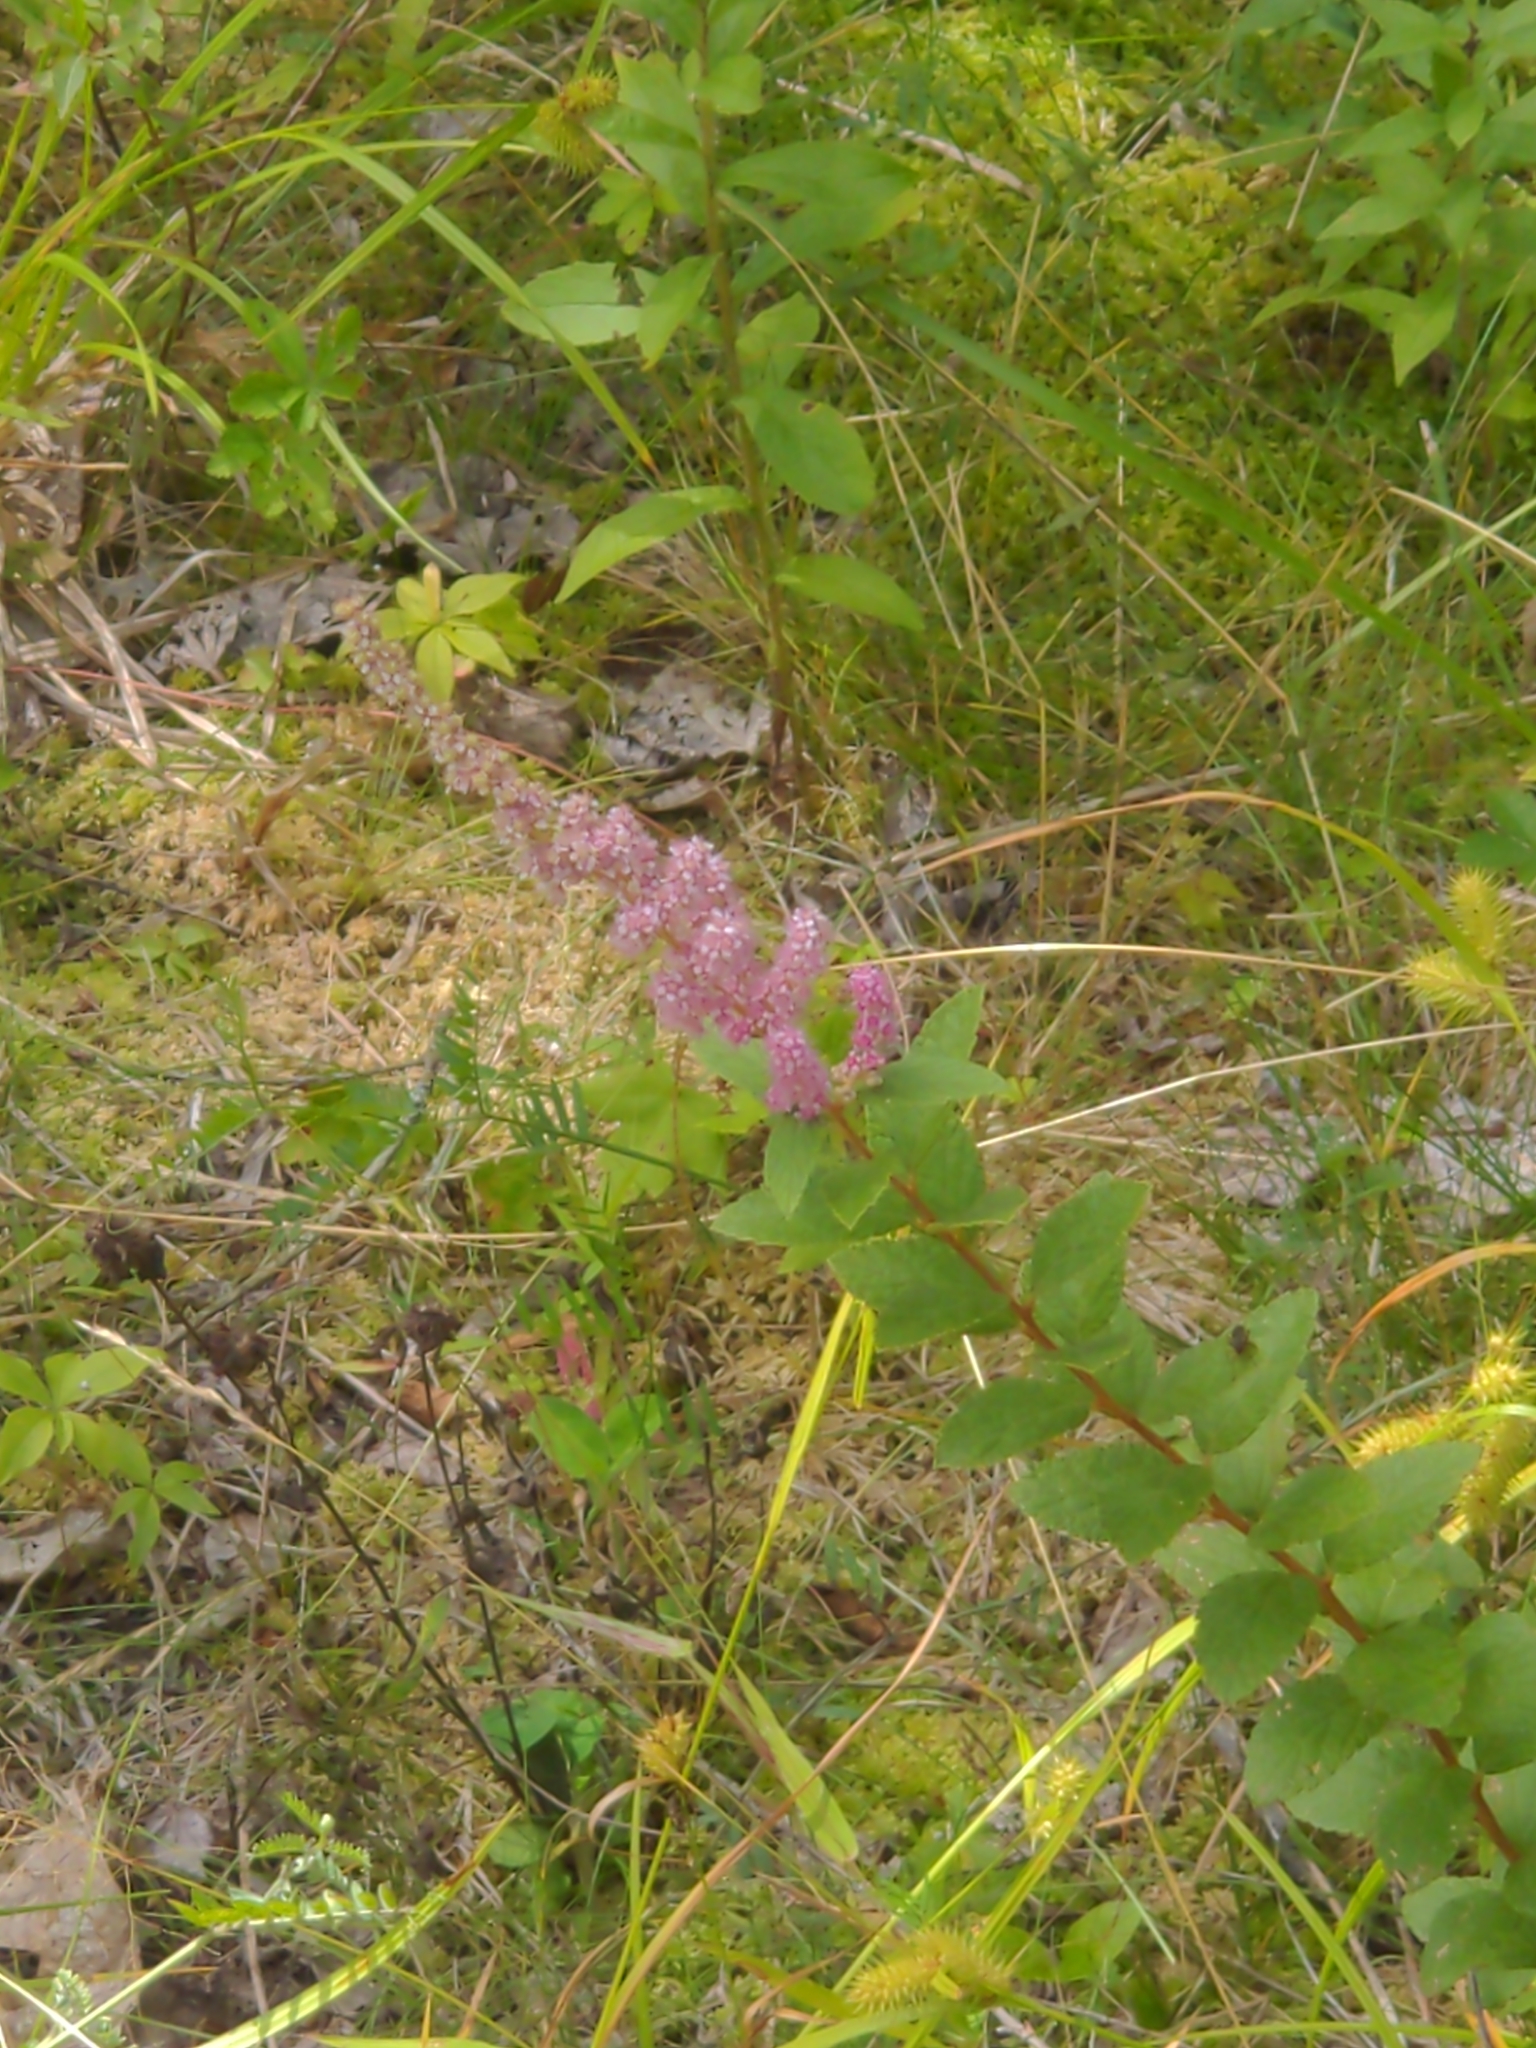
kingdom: Plantae
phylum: Tracheophyta
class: Magnoliopsida
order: Rosales
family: Rosaceae
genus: Spiraea
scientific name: Spiraea tomentosa
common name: Hardhack
